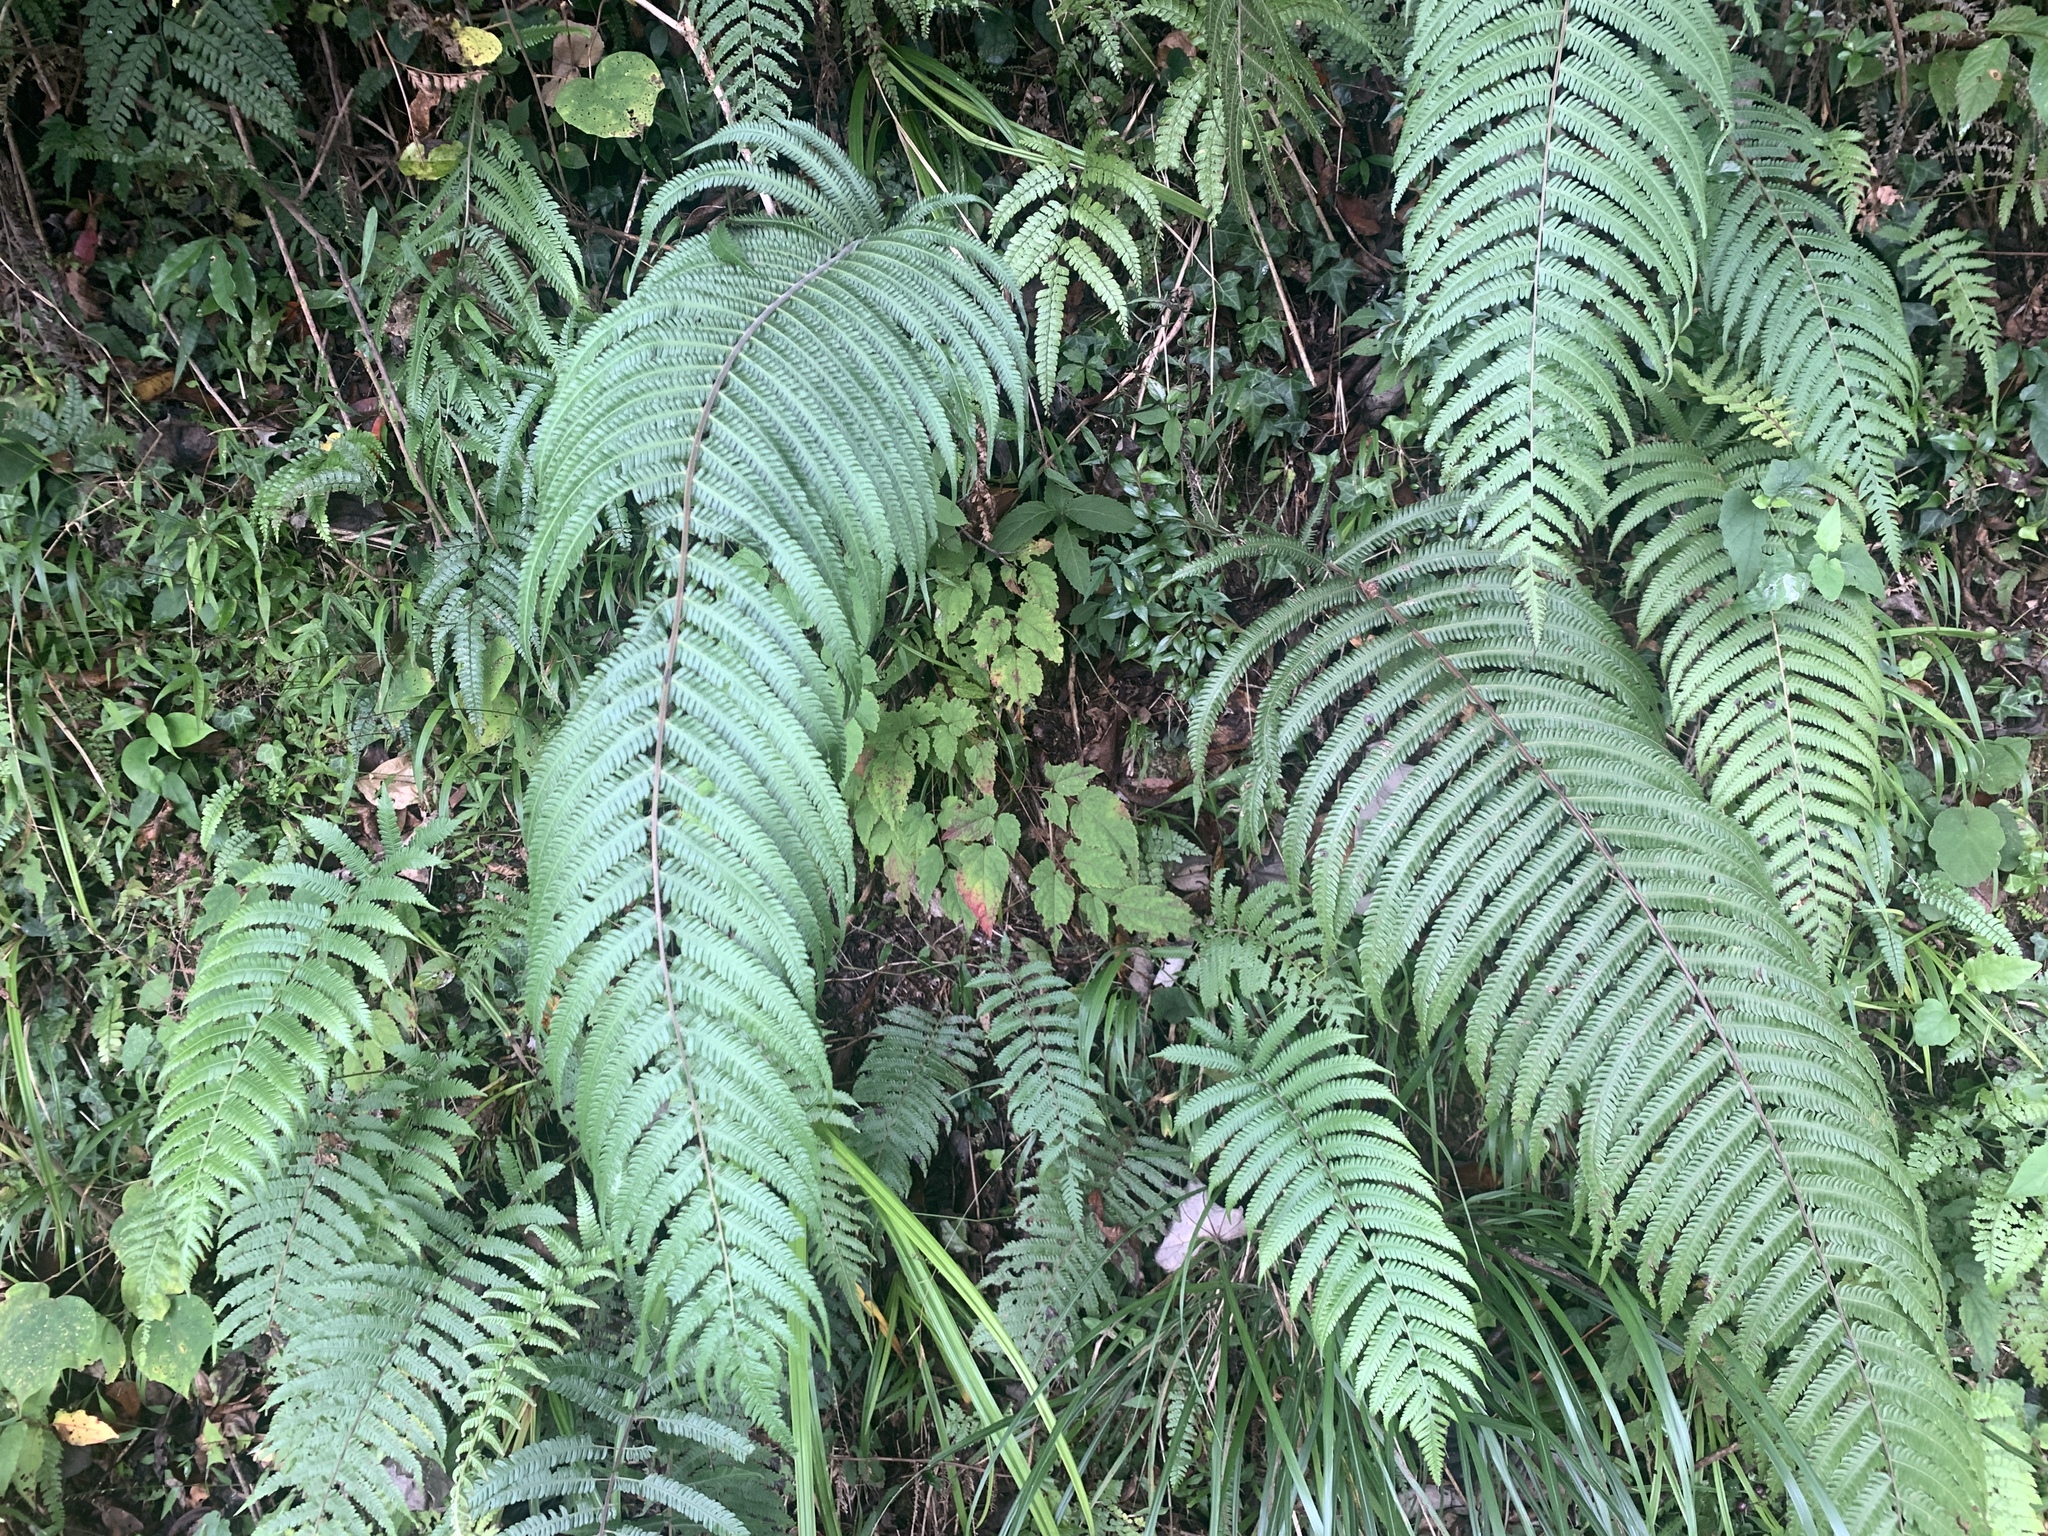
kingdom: Plantae
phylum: Tracheophyta
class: Polypodiopsida
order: Polypodiales
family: Thelypteridaceae
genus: Pseudocyclosorus
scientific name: Pseudocyclosorus esquirolii
